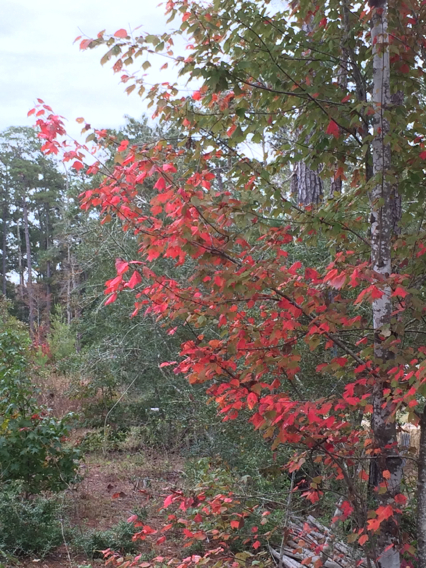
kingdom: Plantae
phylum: Tracheophyta
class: Magnoliopsida
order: Sapindales
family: Sapindaceae
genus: Acer
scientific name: Acer rubrum
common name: Red maple
